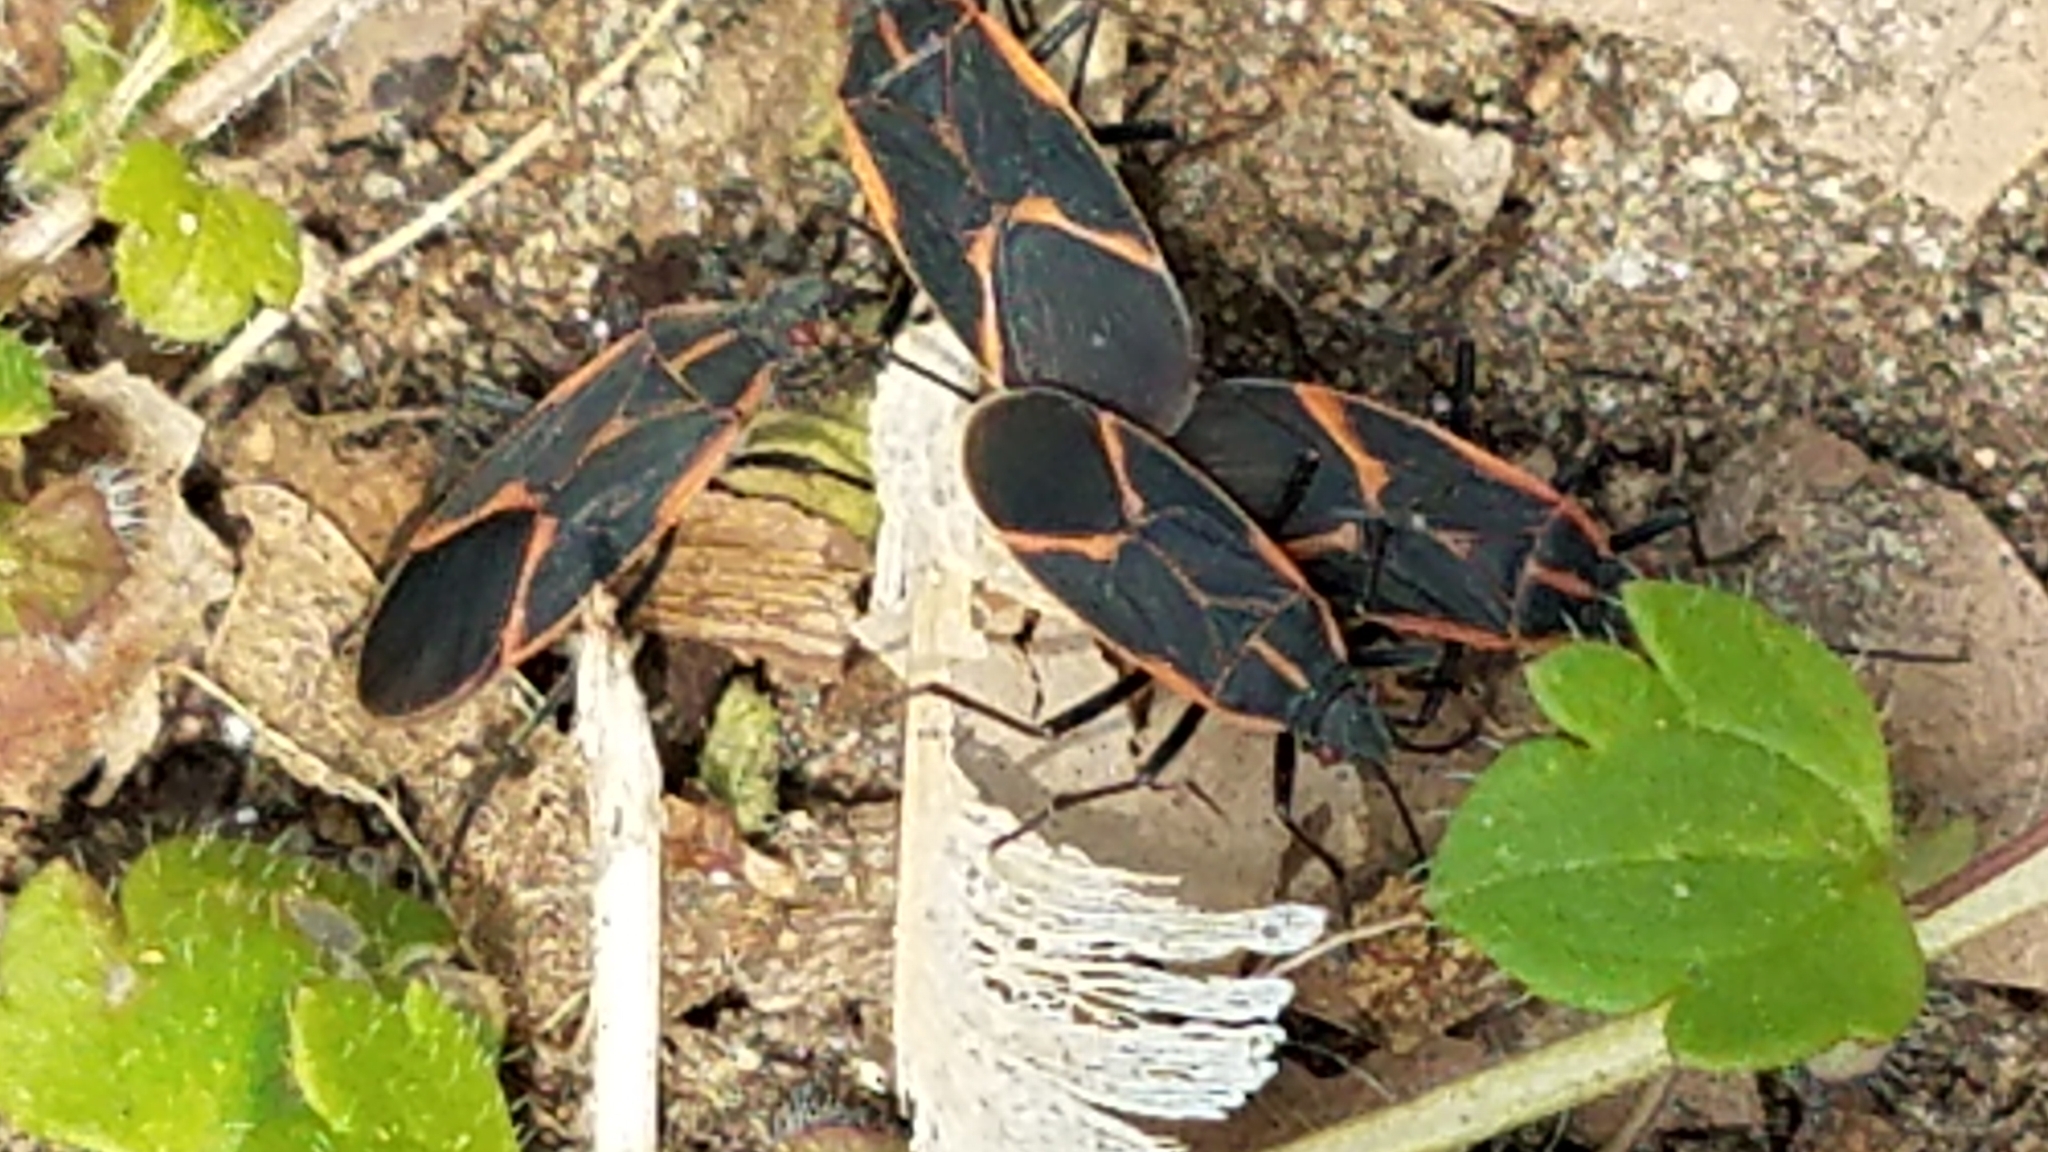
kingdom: Animalia
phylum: Arthropoda
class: Insecta
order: Hemiptera
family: Rhopalidae
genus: Boisea
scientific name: Boisea trivittata
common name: Boxelder bug
